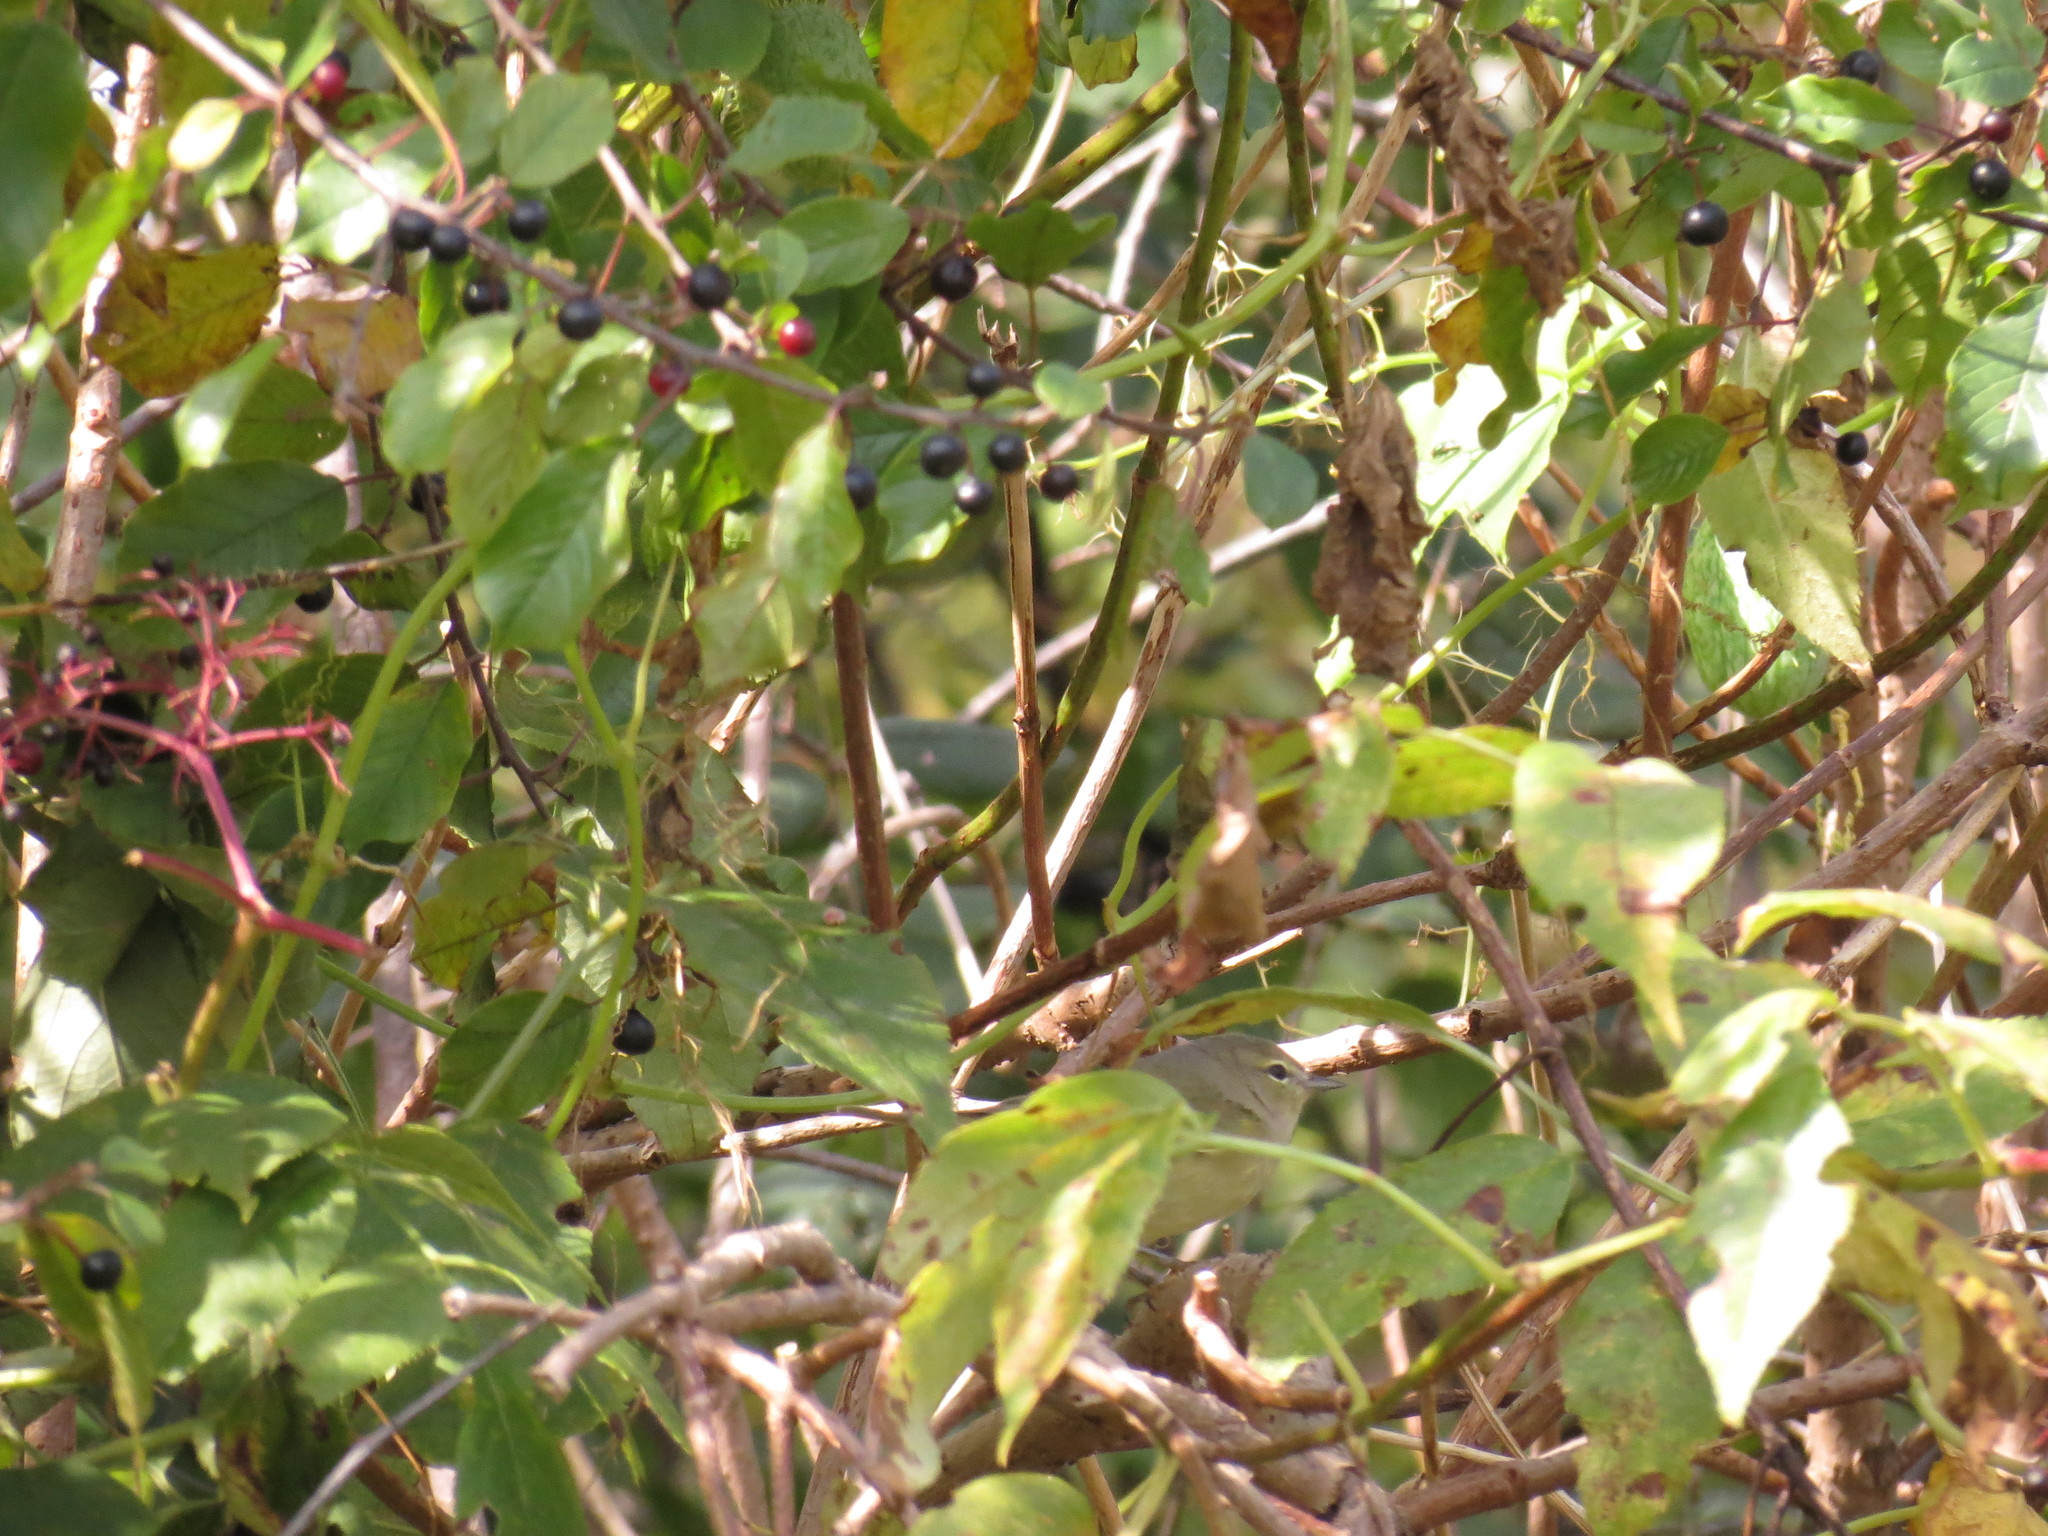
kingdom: Animalia
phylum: Chordata
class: Aves
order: Passeriformes
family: Parulidae
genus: Leiothlypis
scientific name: Leiothlypis celata
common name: Orange-crowned warbler
